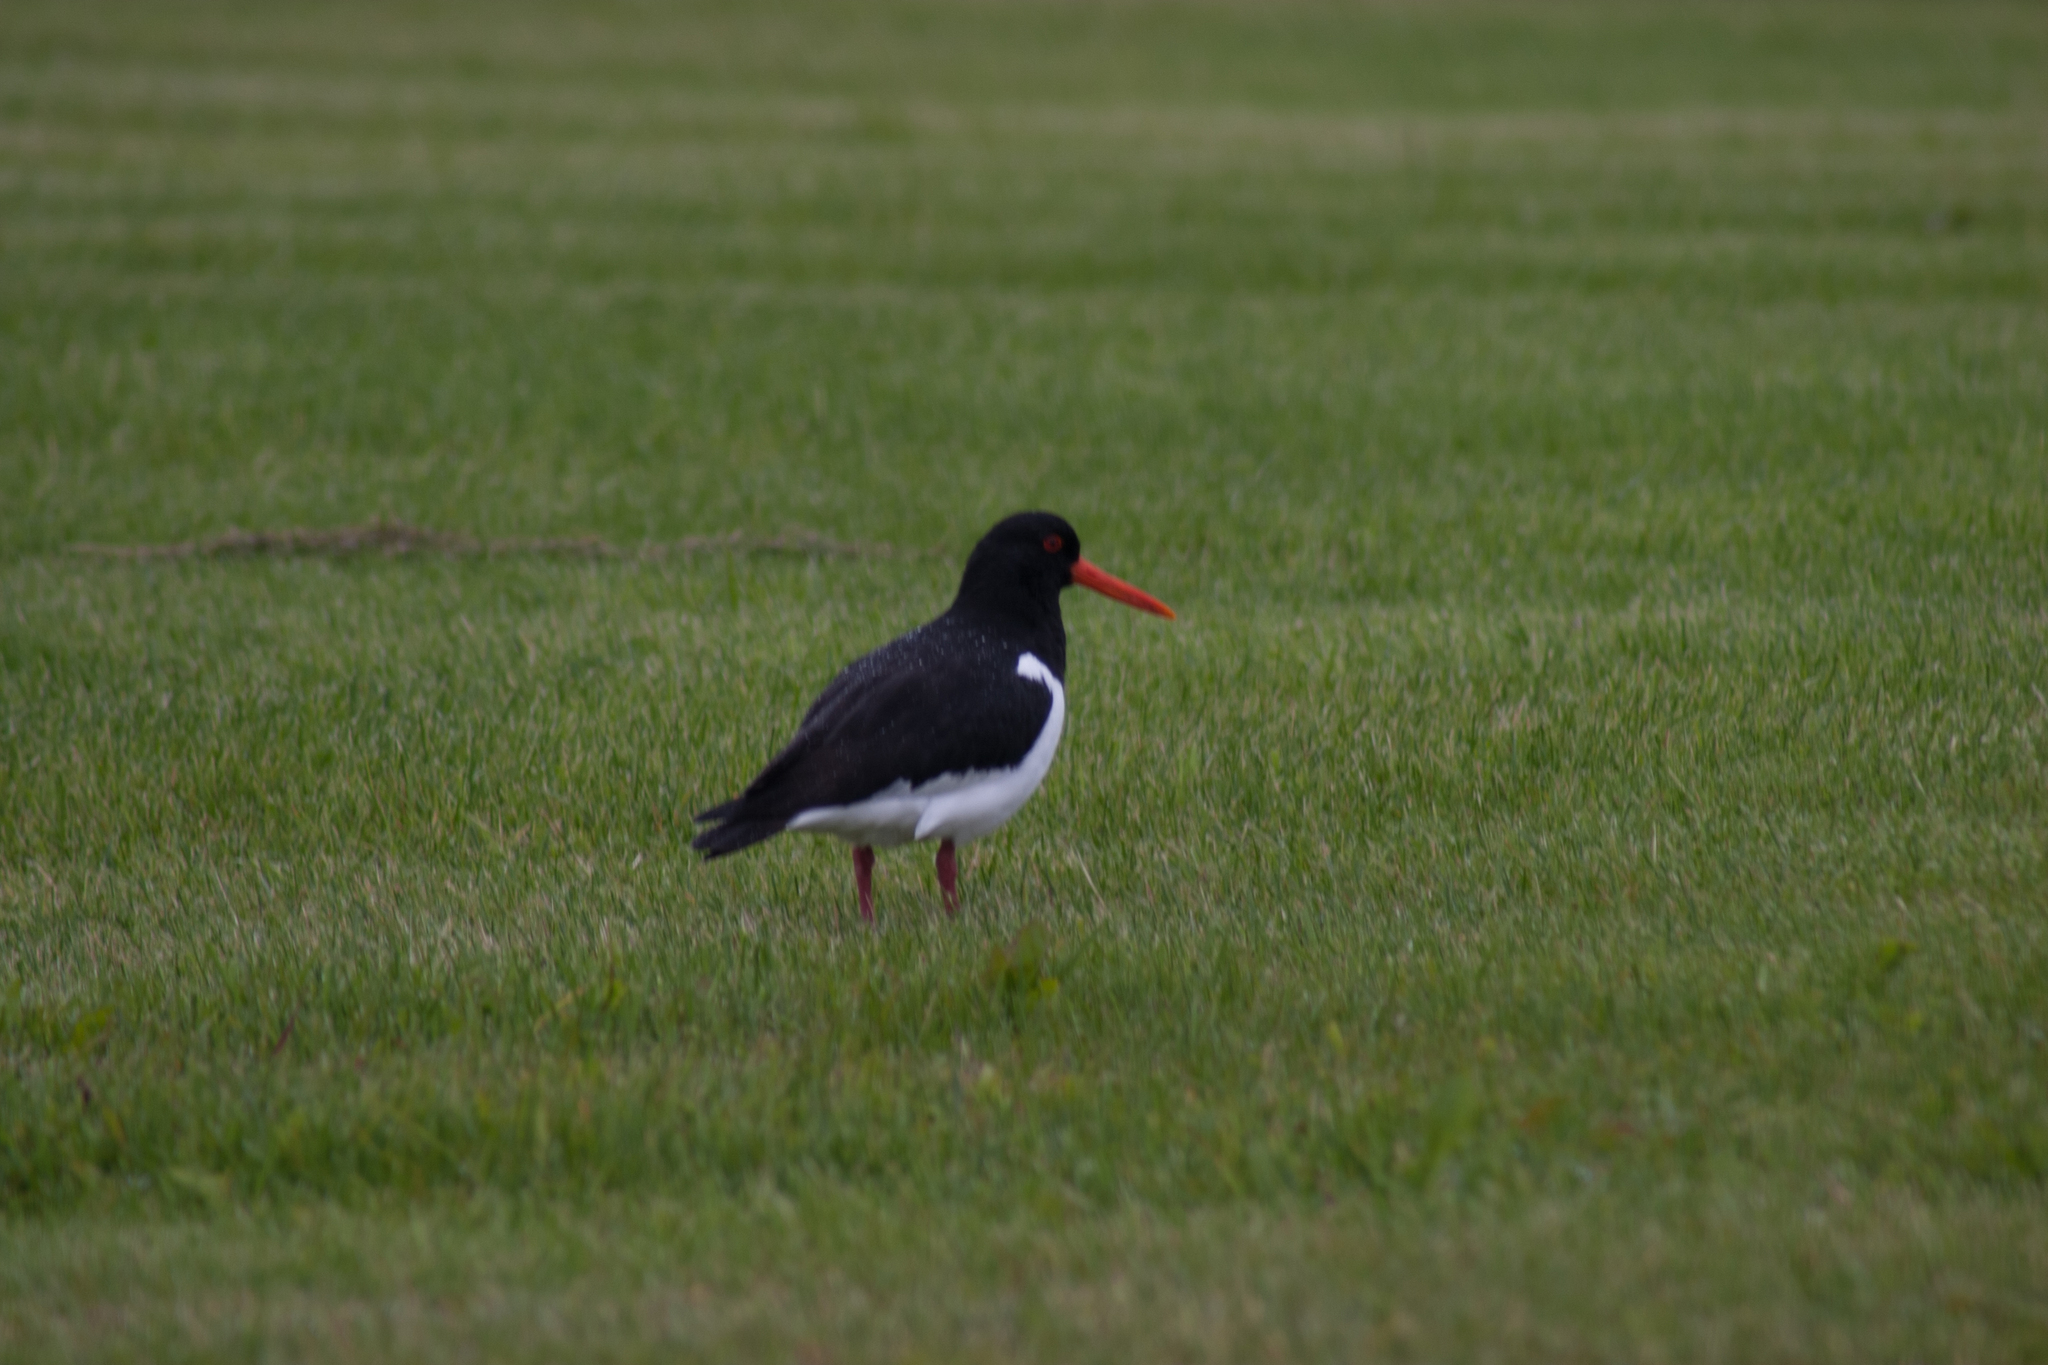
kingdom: Animalia
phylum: Chordata
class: Aves
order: Charadriiformes
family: Haematopodidae
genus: Haematopus
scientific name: Haematopus ostralegus
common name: Eurasian oystercatcher
